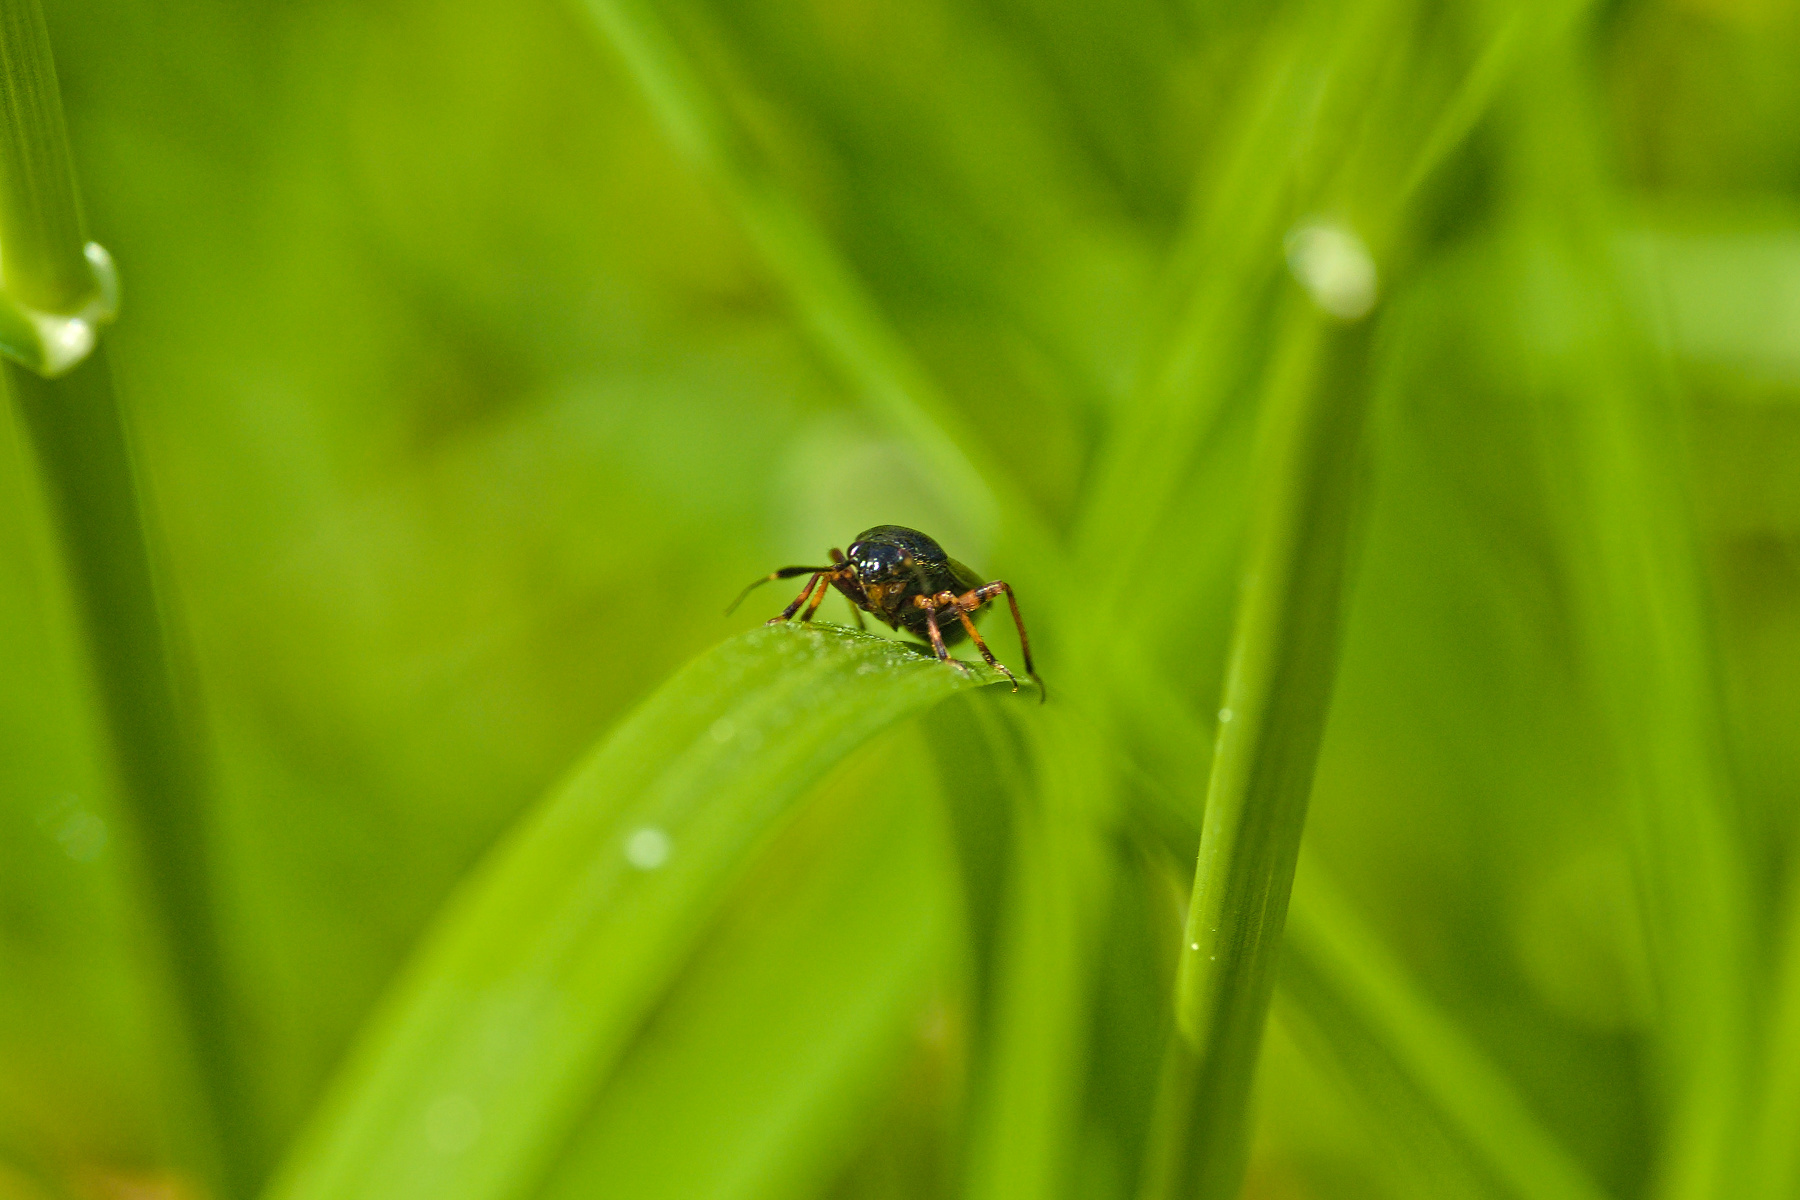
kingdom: Animalia
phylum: Arthropoda
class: Insecta
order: Hemiptera
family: Miridae
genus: Capsus
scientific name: Capsus ater
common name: Black plant bug
